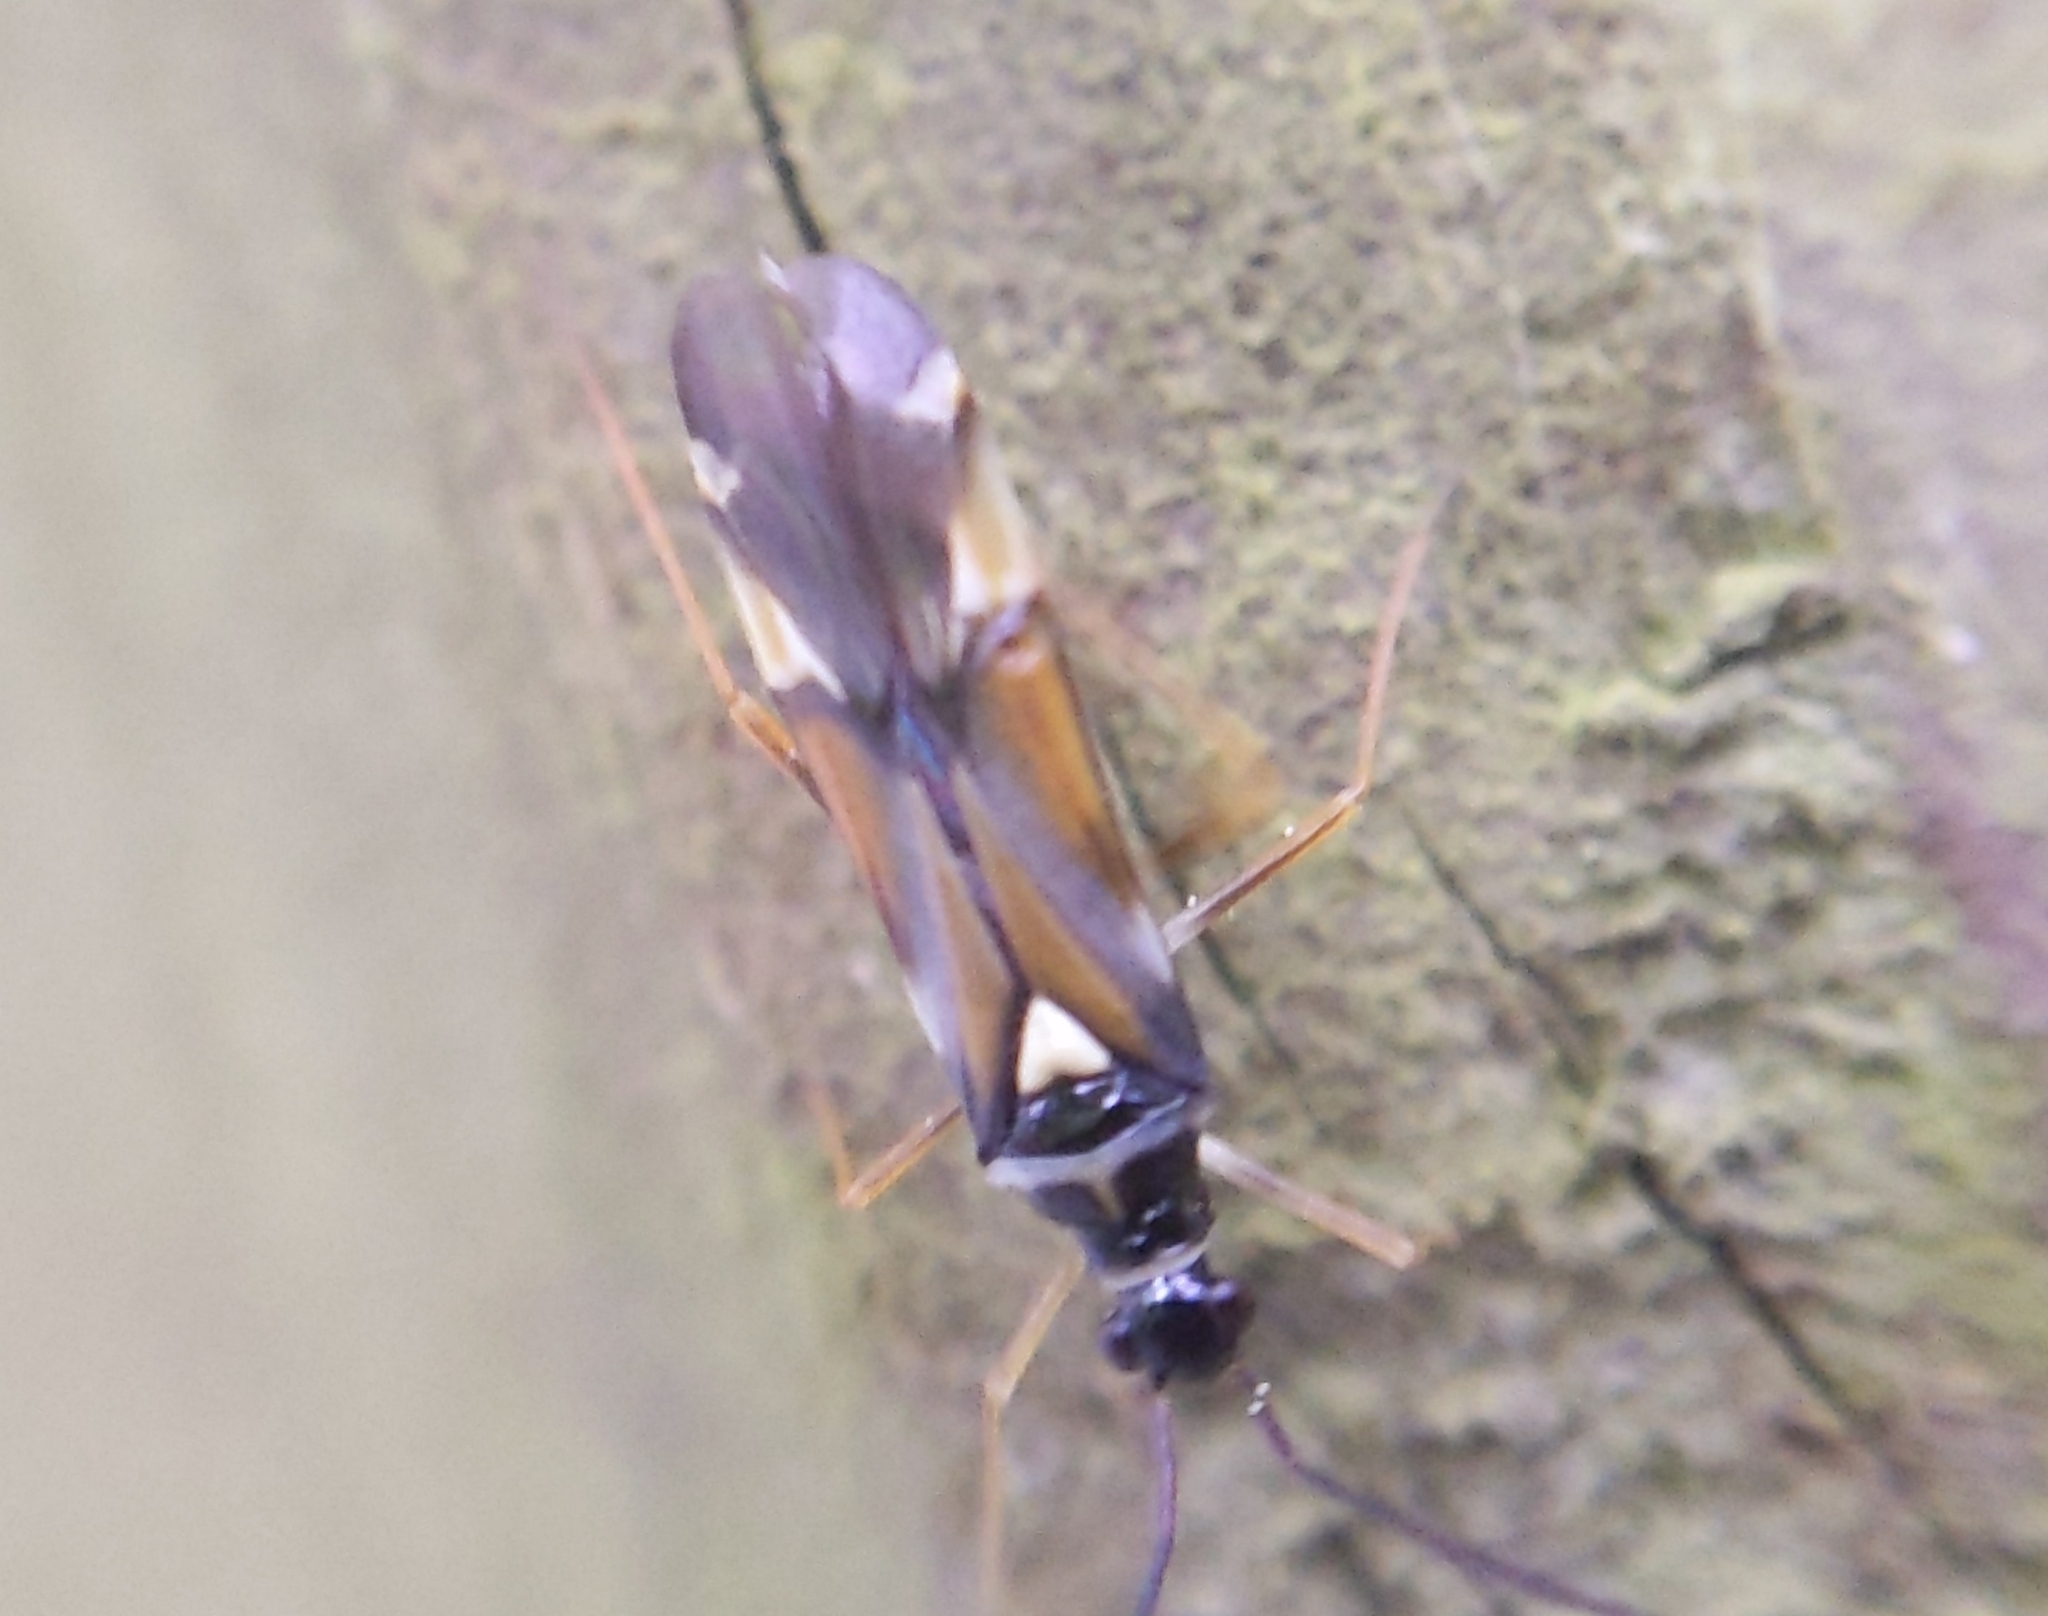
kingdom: Animalia
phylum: Arthropoda
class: Insecta
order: Hemiptera
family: Miridae
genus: Cyllecoris
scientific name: Cyllecoris histrionius
